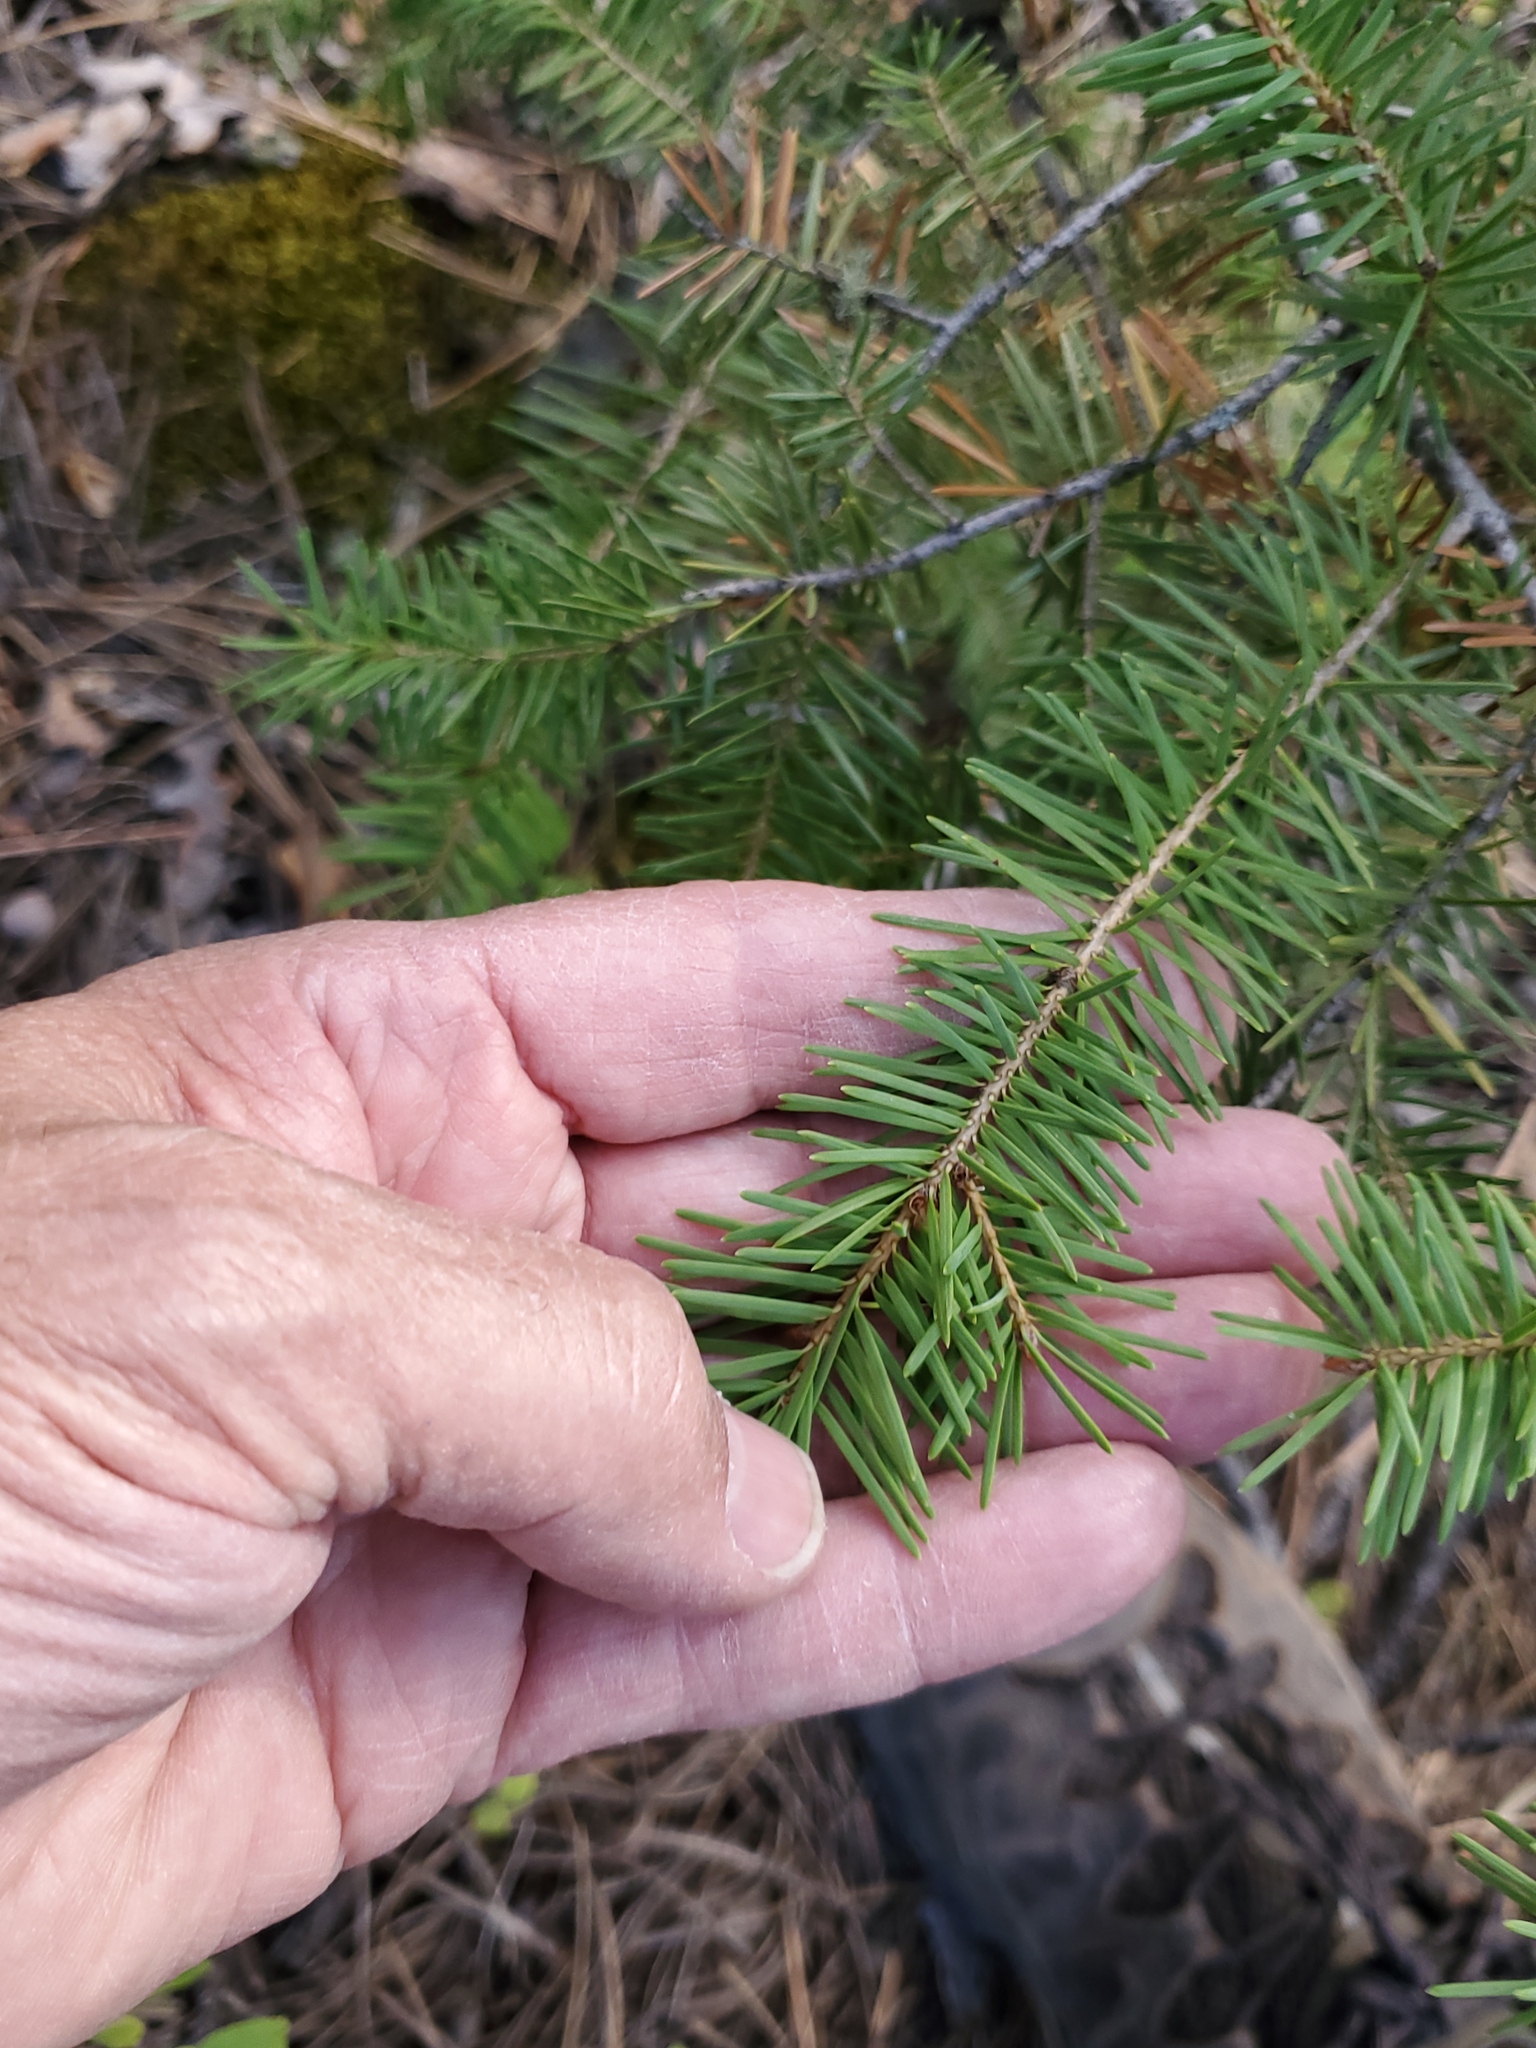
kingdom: Plantae
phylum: Tracheophyta
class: Pinopsida
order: Pinales
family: Pinaceae
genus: Pseudotsuga
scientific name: Pseudotsuga menziesii
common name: Douglas fir
